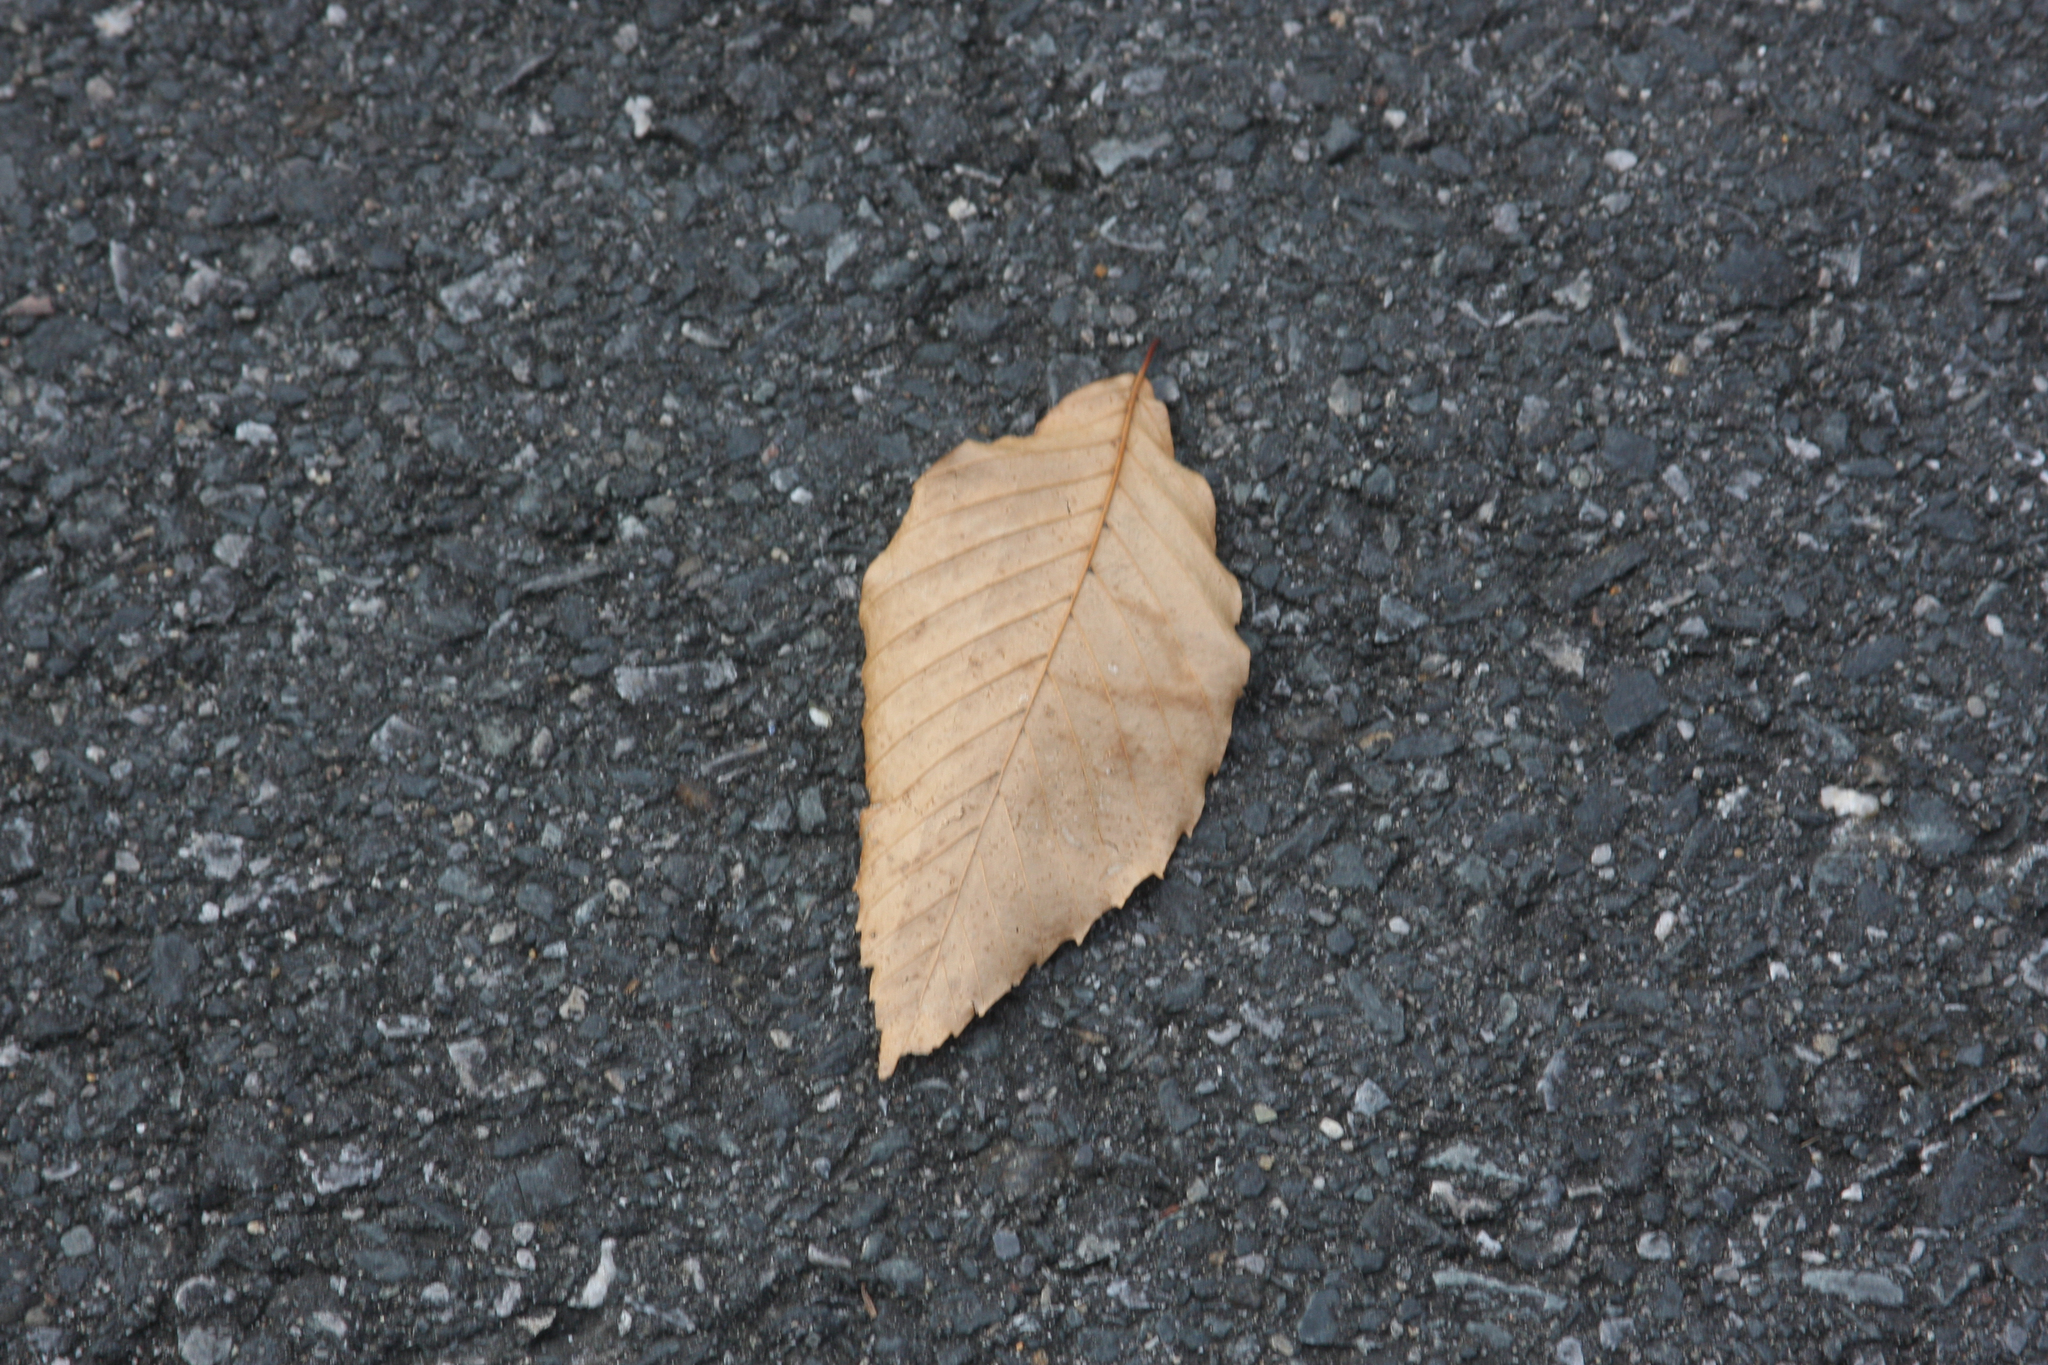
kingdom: Plantae
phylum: Tracheophyta
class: Magnoliopsida
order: Fagales
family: Fagaceae
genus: Fagus
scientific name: Fagus grandifolia
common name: American beech
